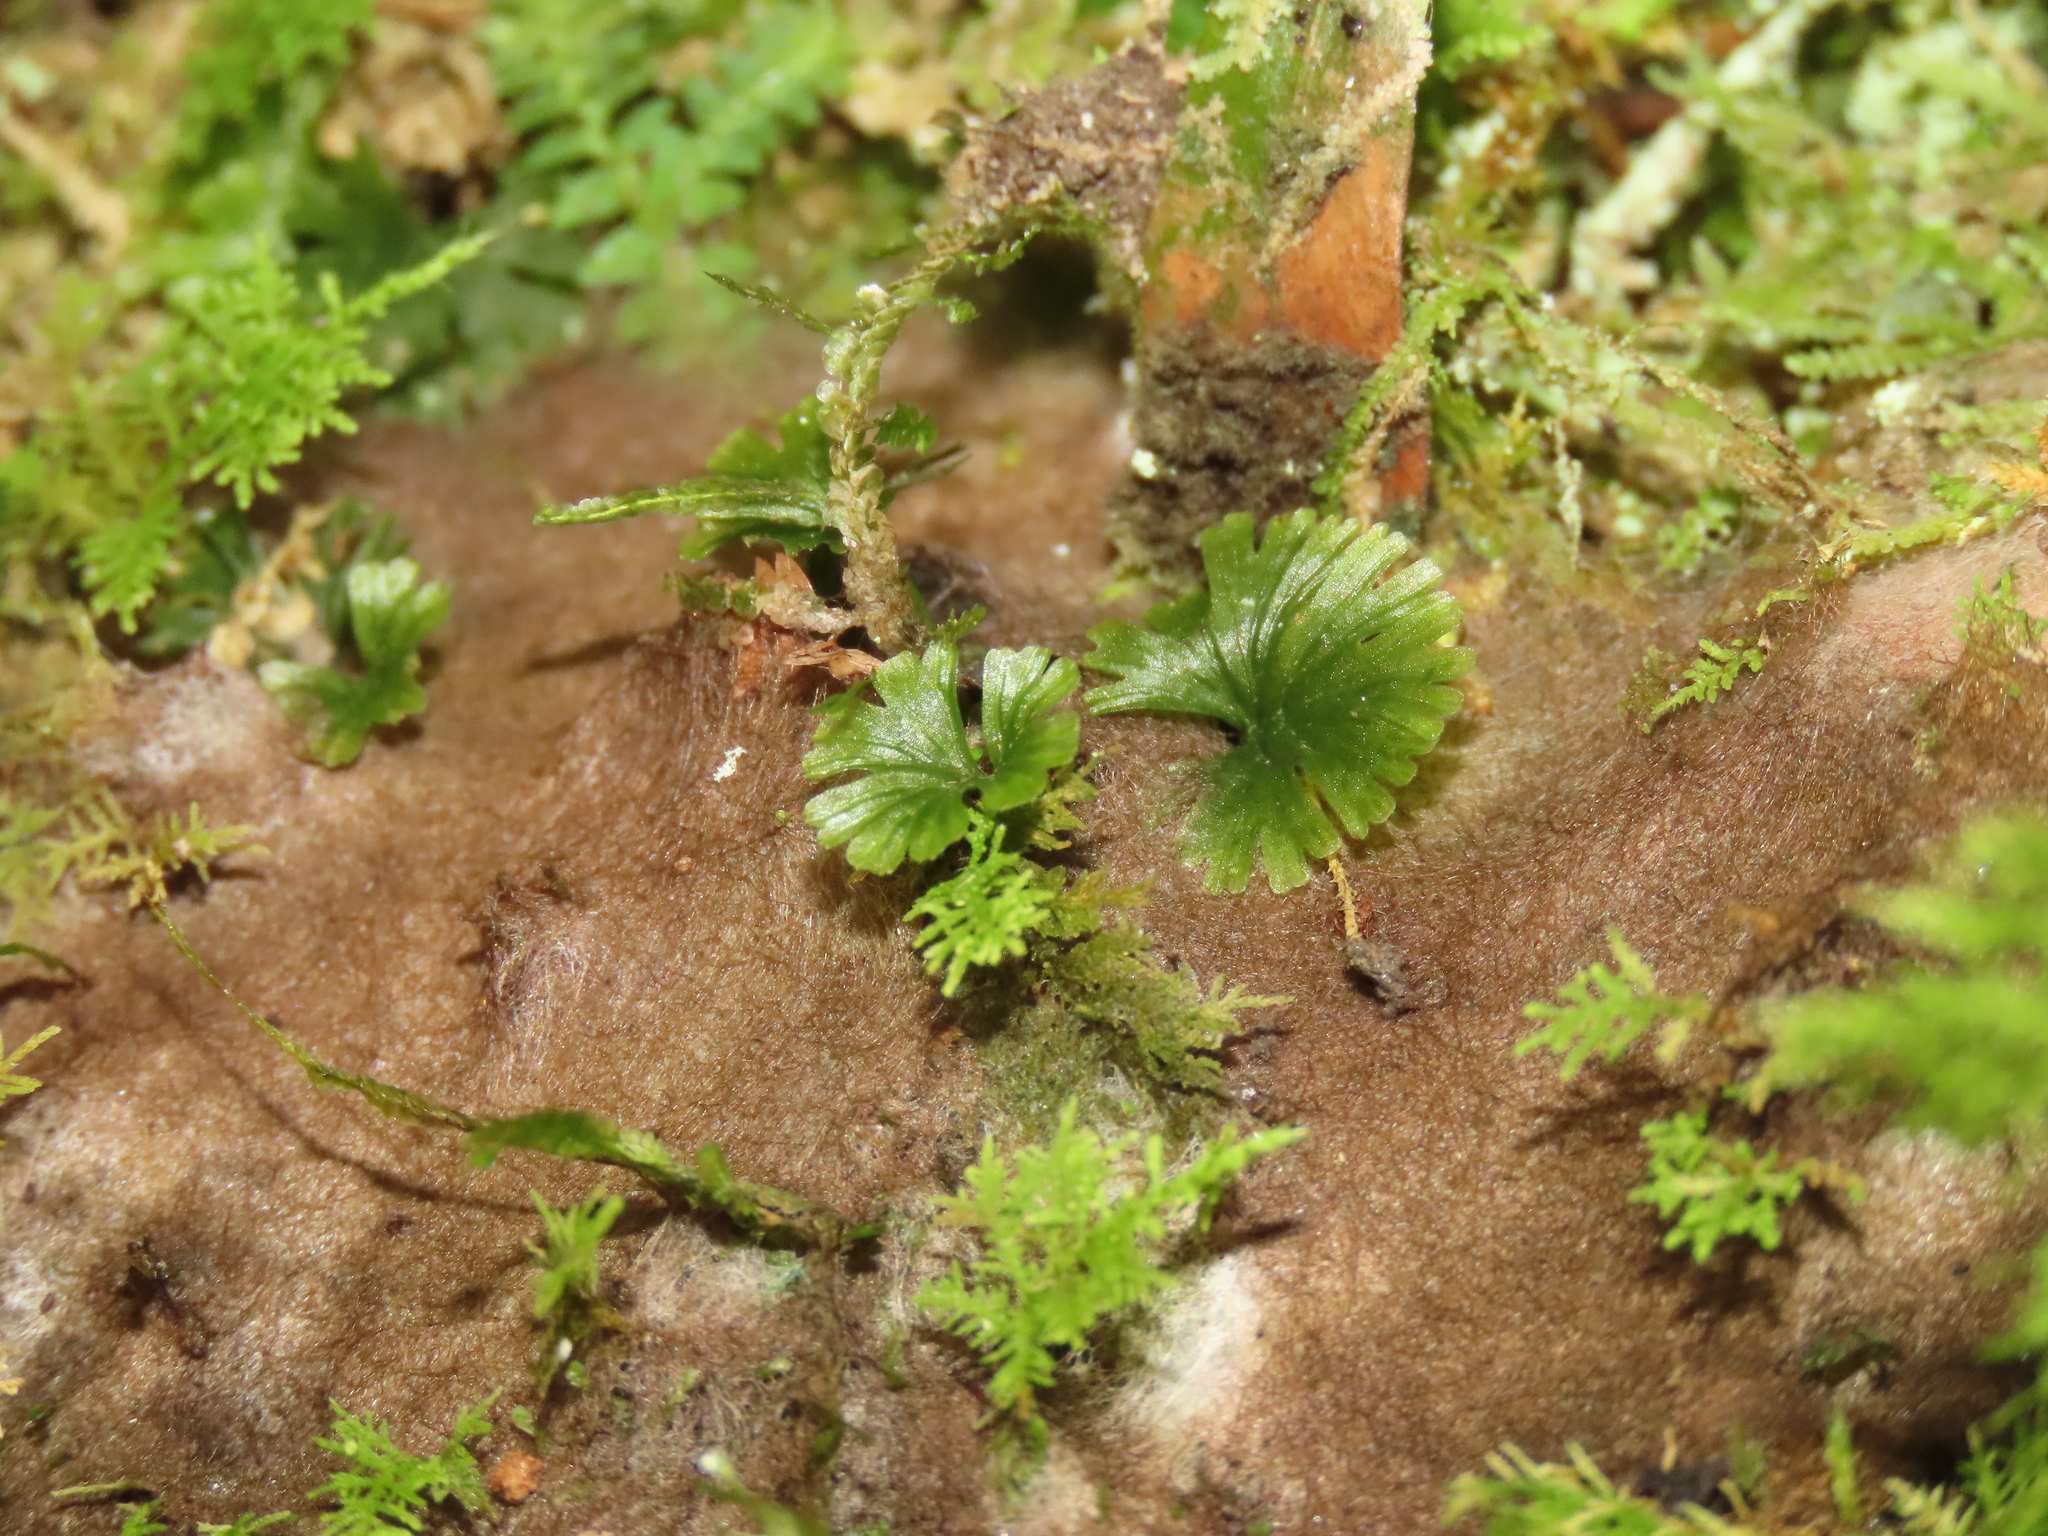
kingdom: Plantae
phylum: Tracheophyta
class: Polypodiopsida
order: Hymenophyllales
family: Hymenophyllaceae
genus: Crepidomanes
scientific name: Crepidomanes parvulum
